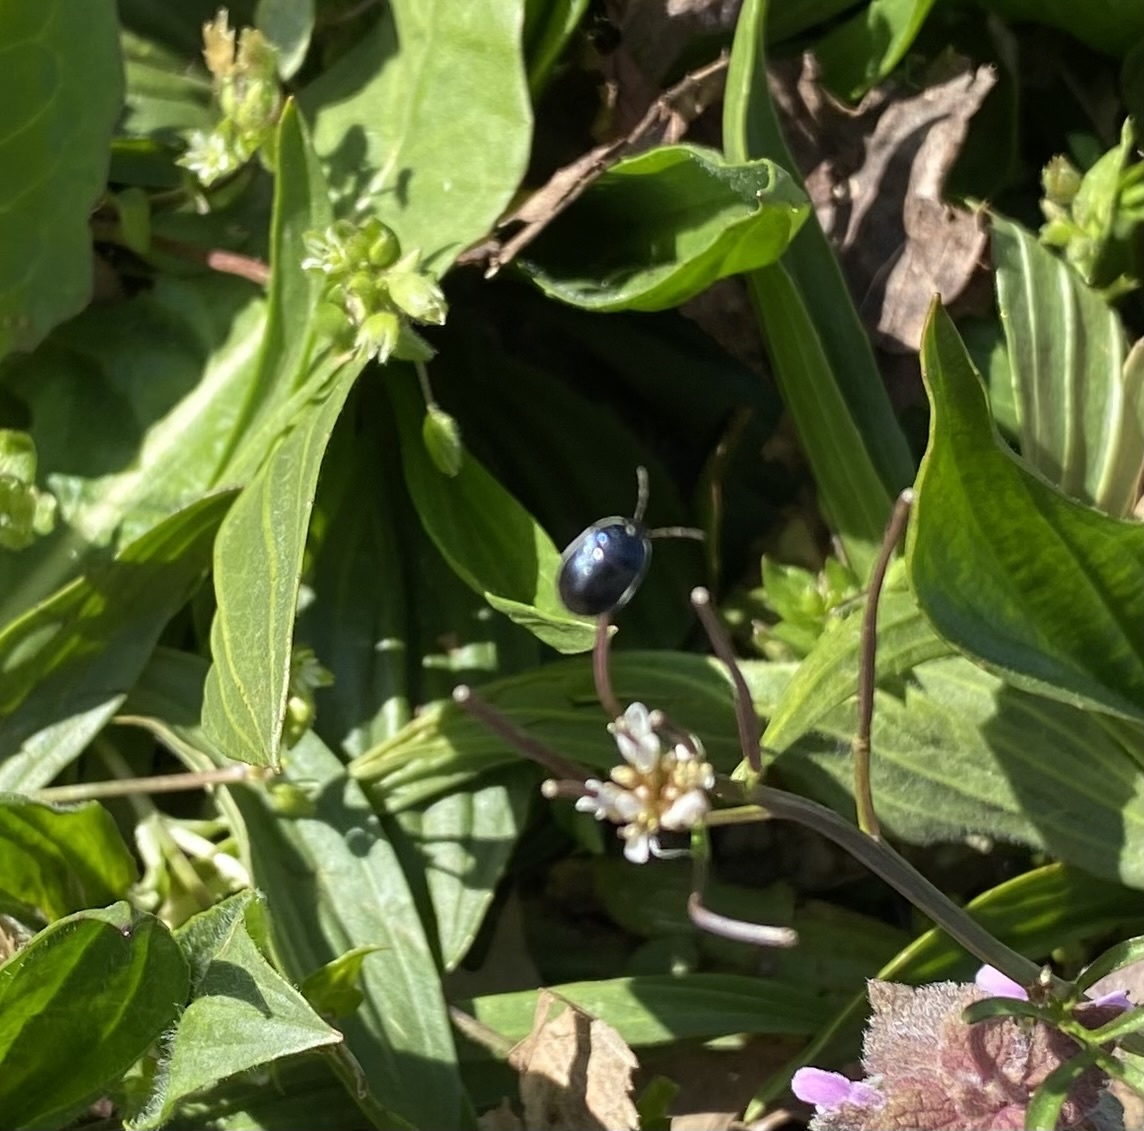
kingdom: Animalia
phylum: Arthropoda
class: Insecta
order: Hemiptera
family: Cydnidae
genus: Sehirus
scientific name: Sehirus cinctus
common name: White-margined burrower bug
